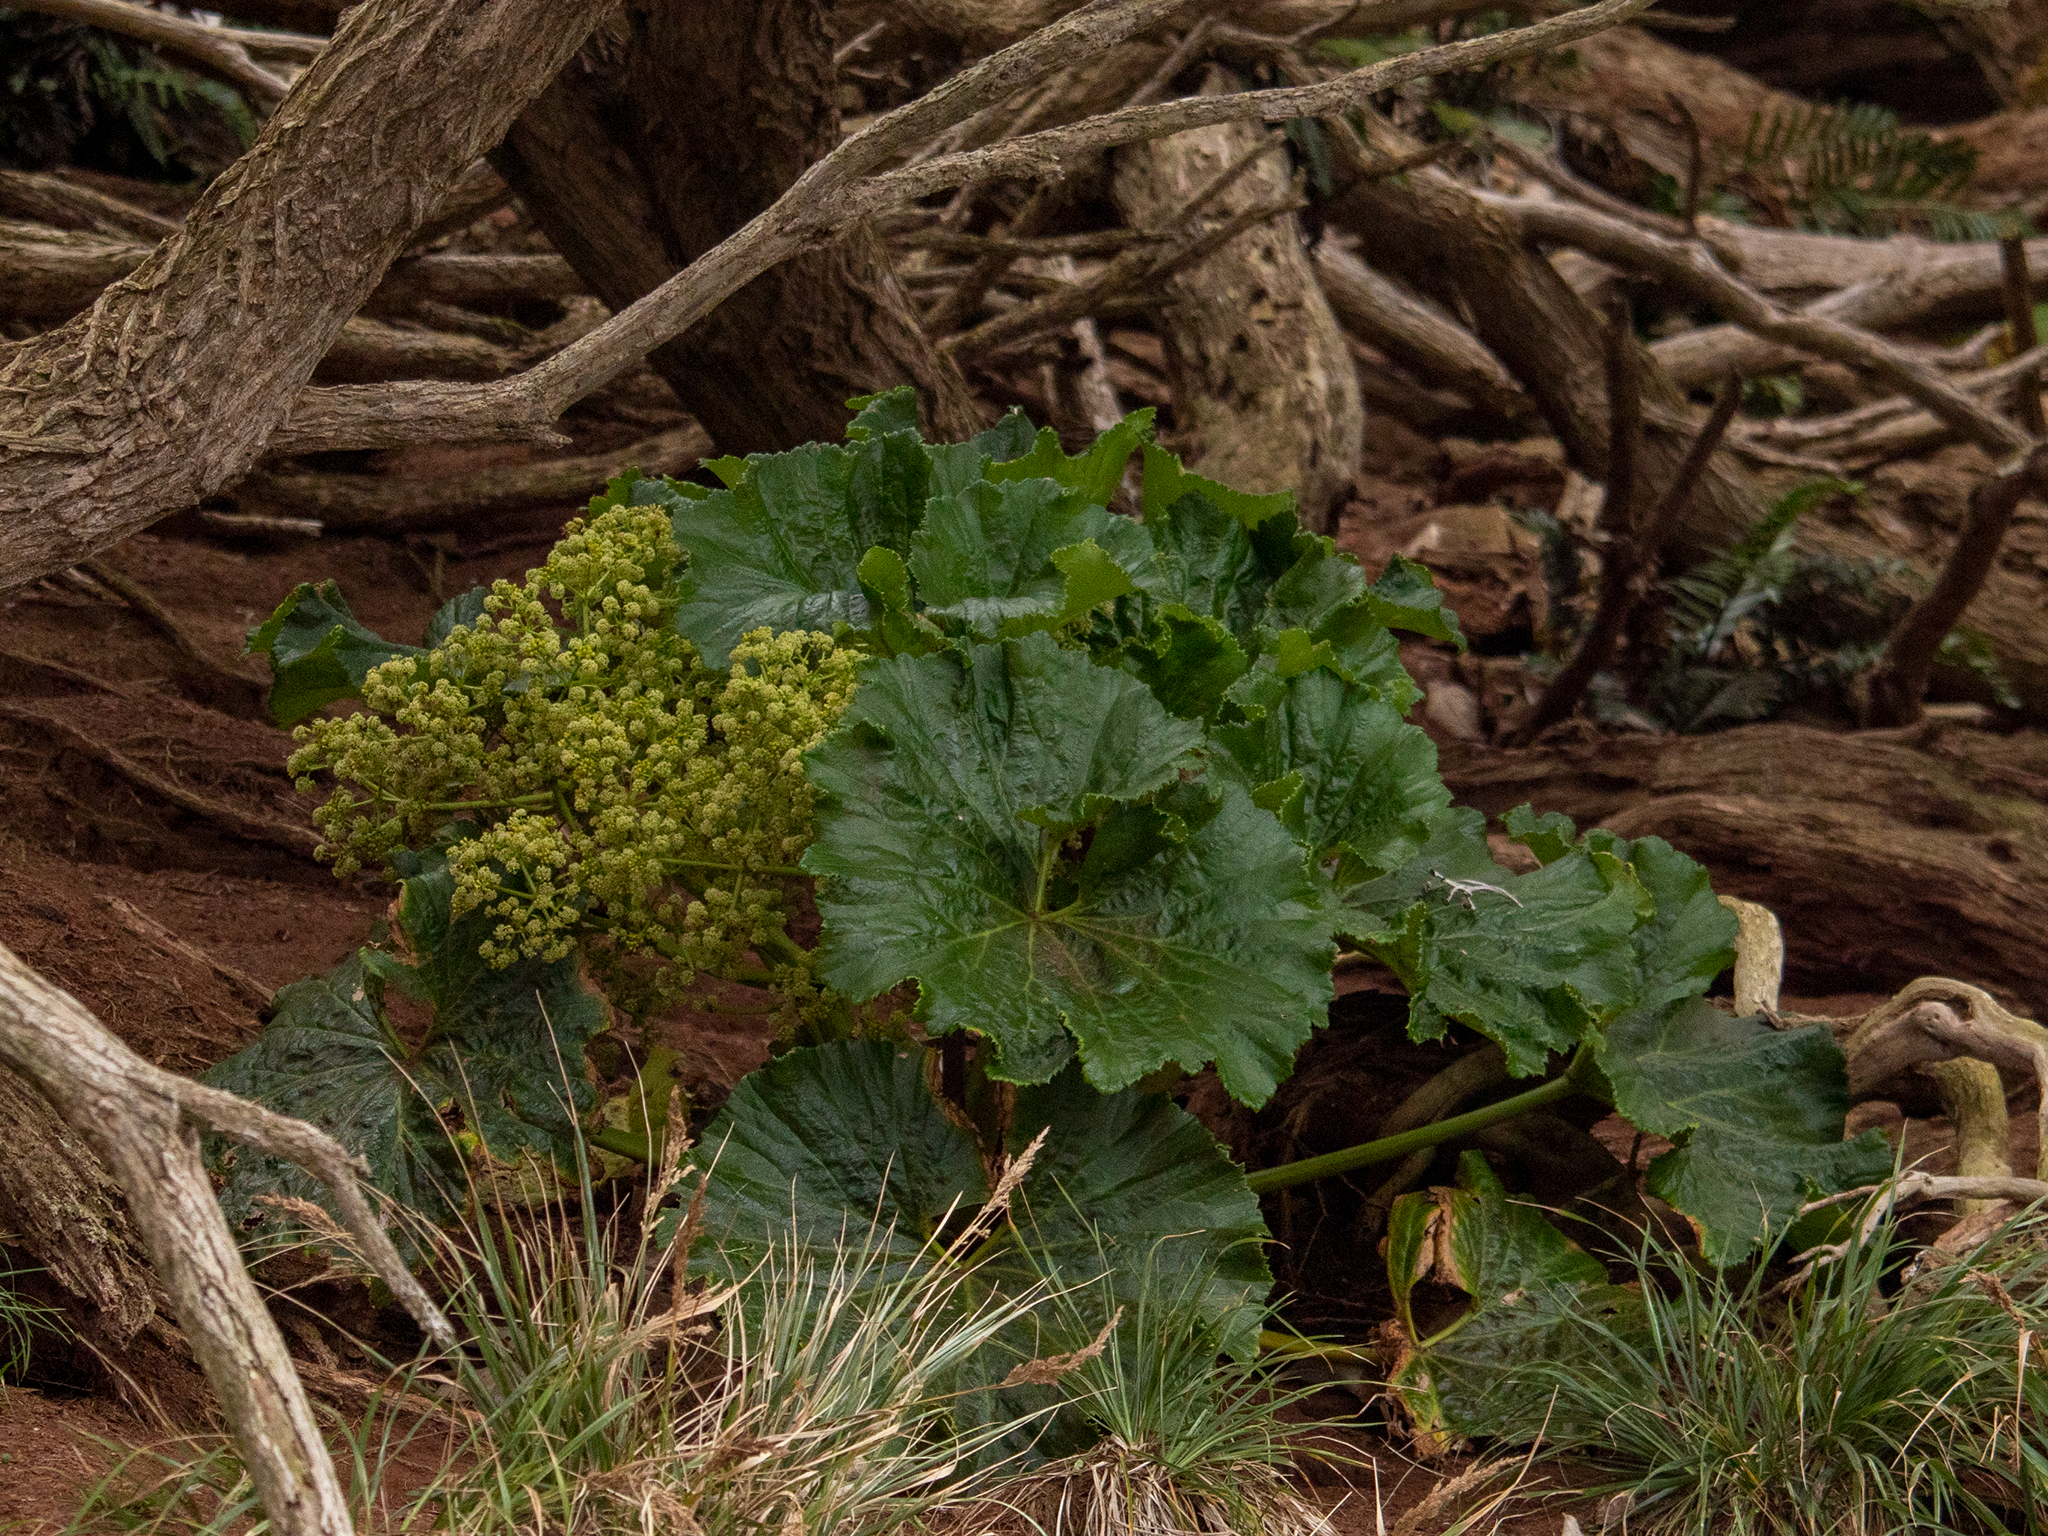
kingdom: Plantae
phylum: Tracheophyta
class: Magnoliopsida
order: Apiales
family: Apiaceae
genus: Azorella
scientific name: Azorella robusta
